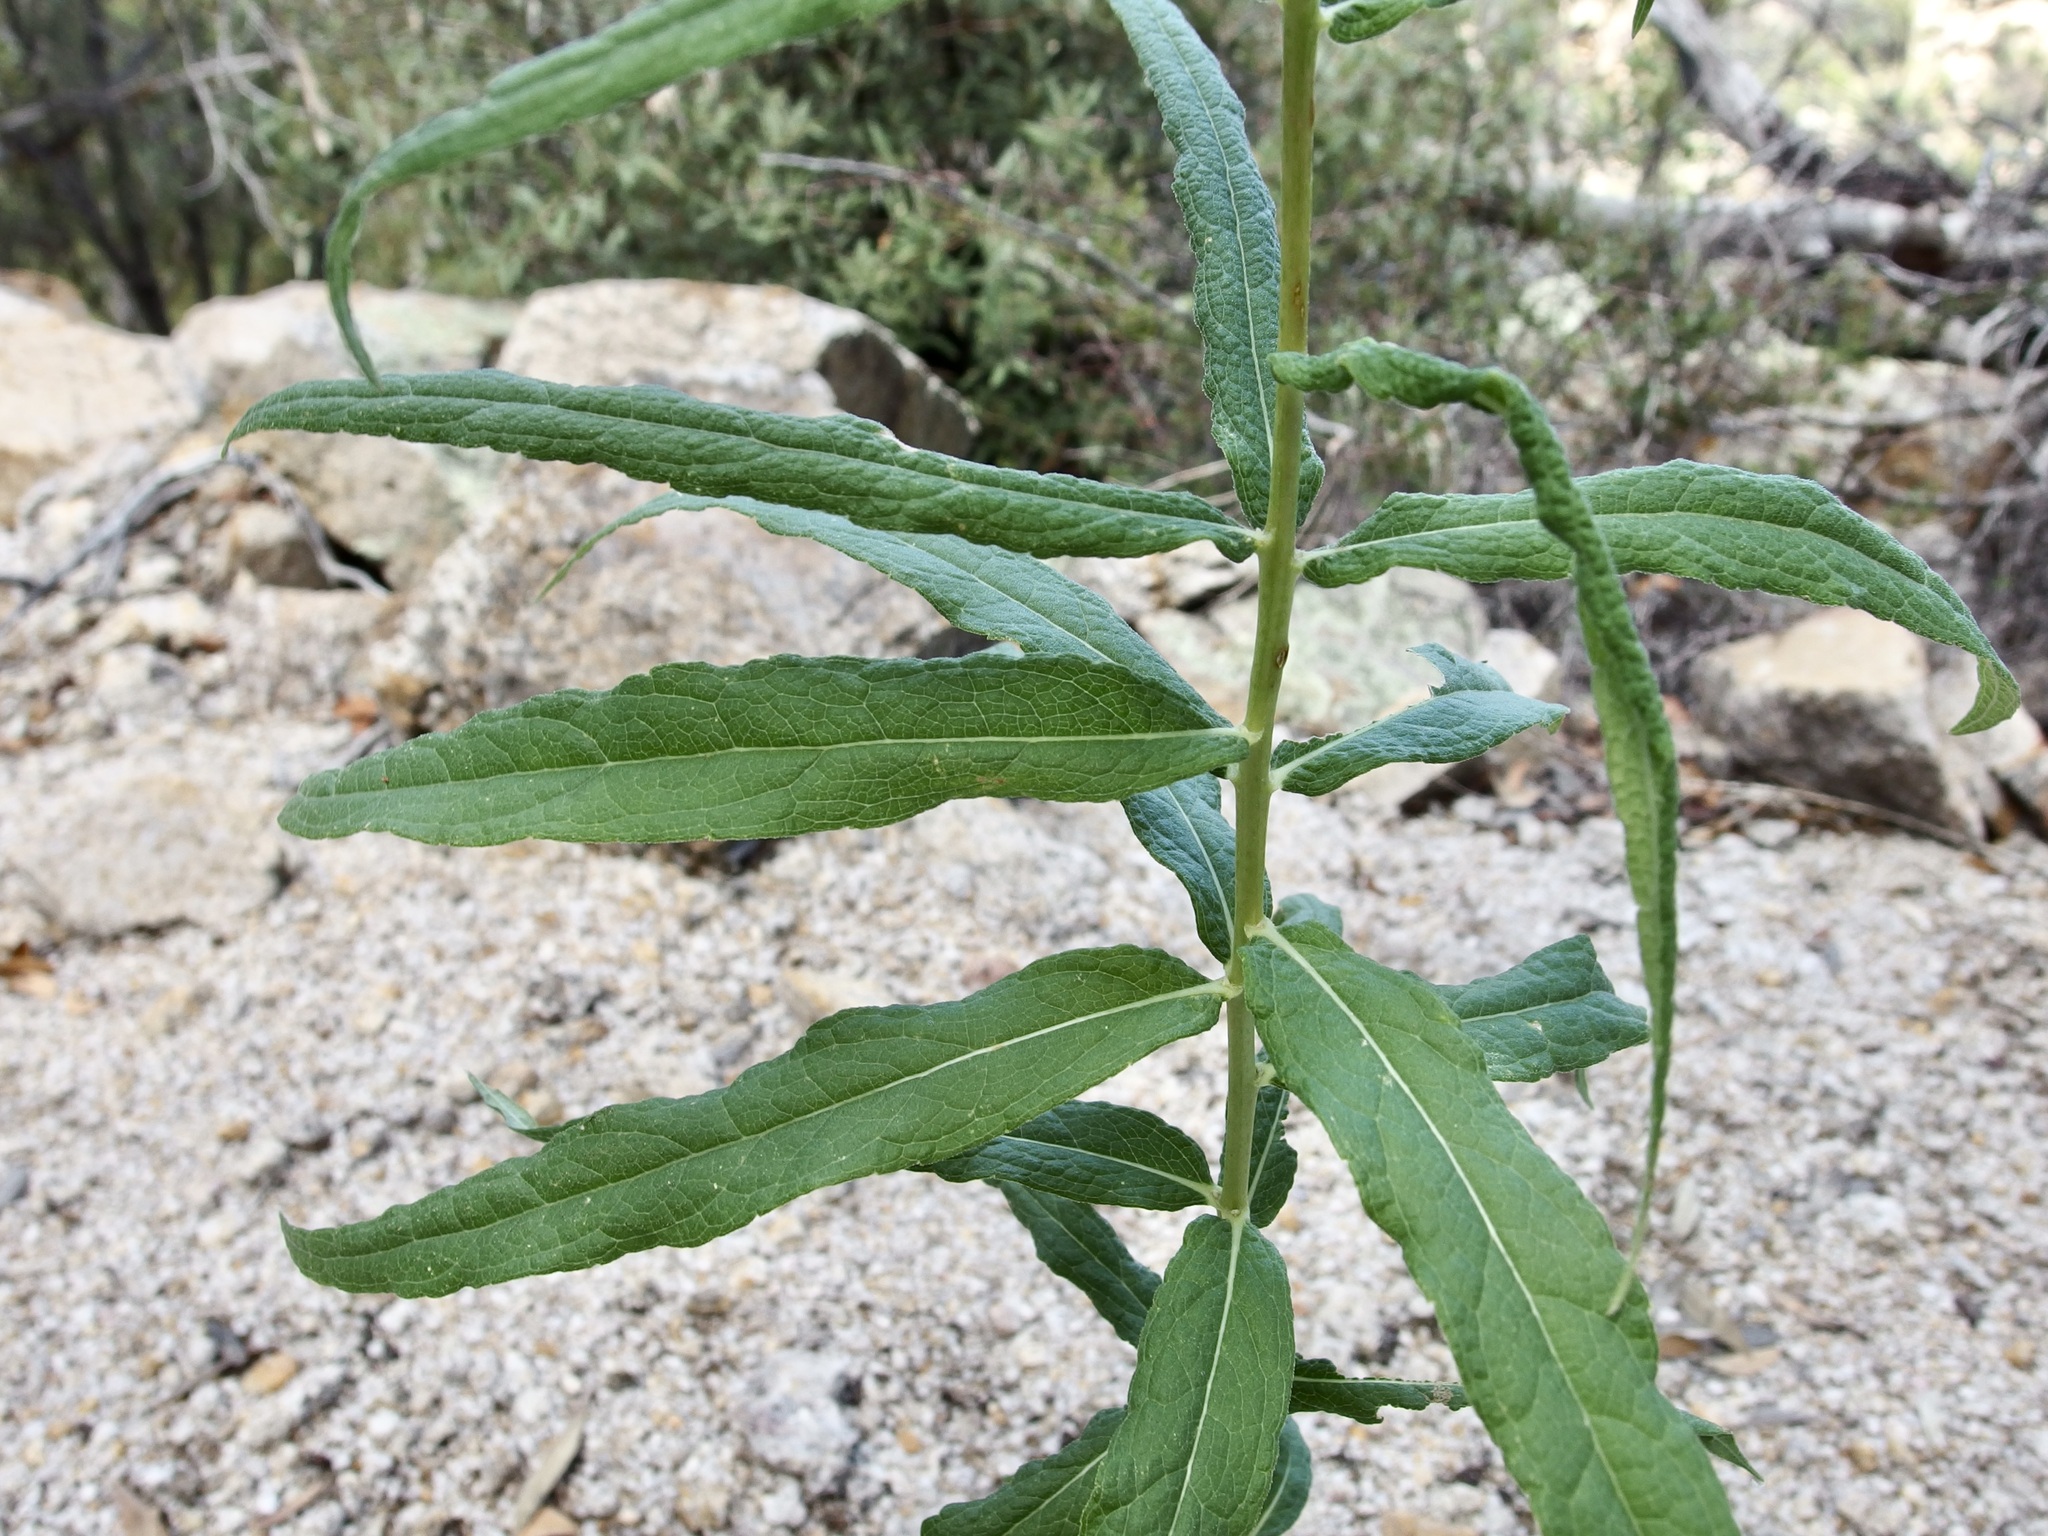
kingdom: Plantae
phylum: Tracheophyta
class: Magnoliopsida
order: Asterales
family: Asteraceae
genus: Verbesina
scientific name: Verbesina longifolia
